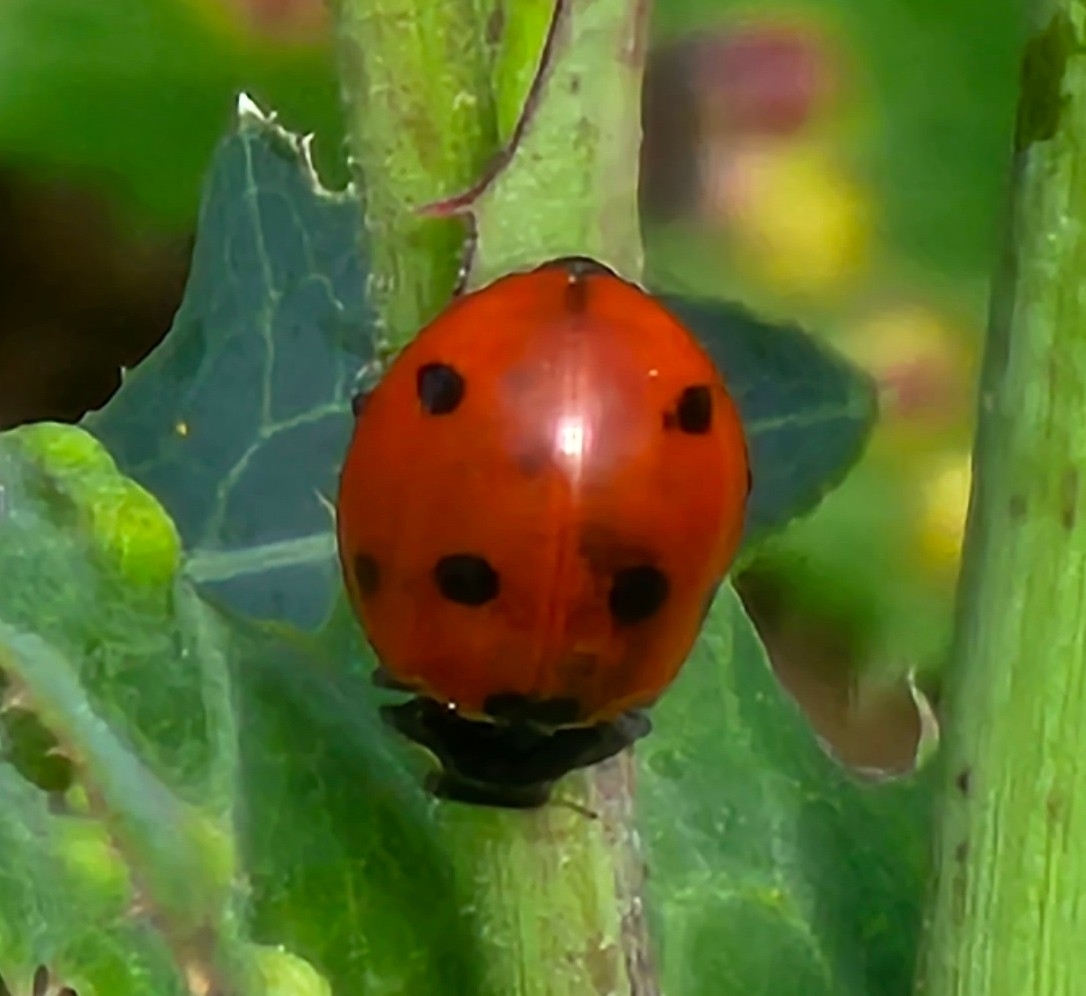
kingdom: Animalia
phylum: Arthropoda
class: Insecta
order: Coleoptera
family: Coccinellidae
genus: Coccinella
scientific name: Coccinella septempunctata
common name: Sevenspotted lady beetle
